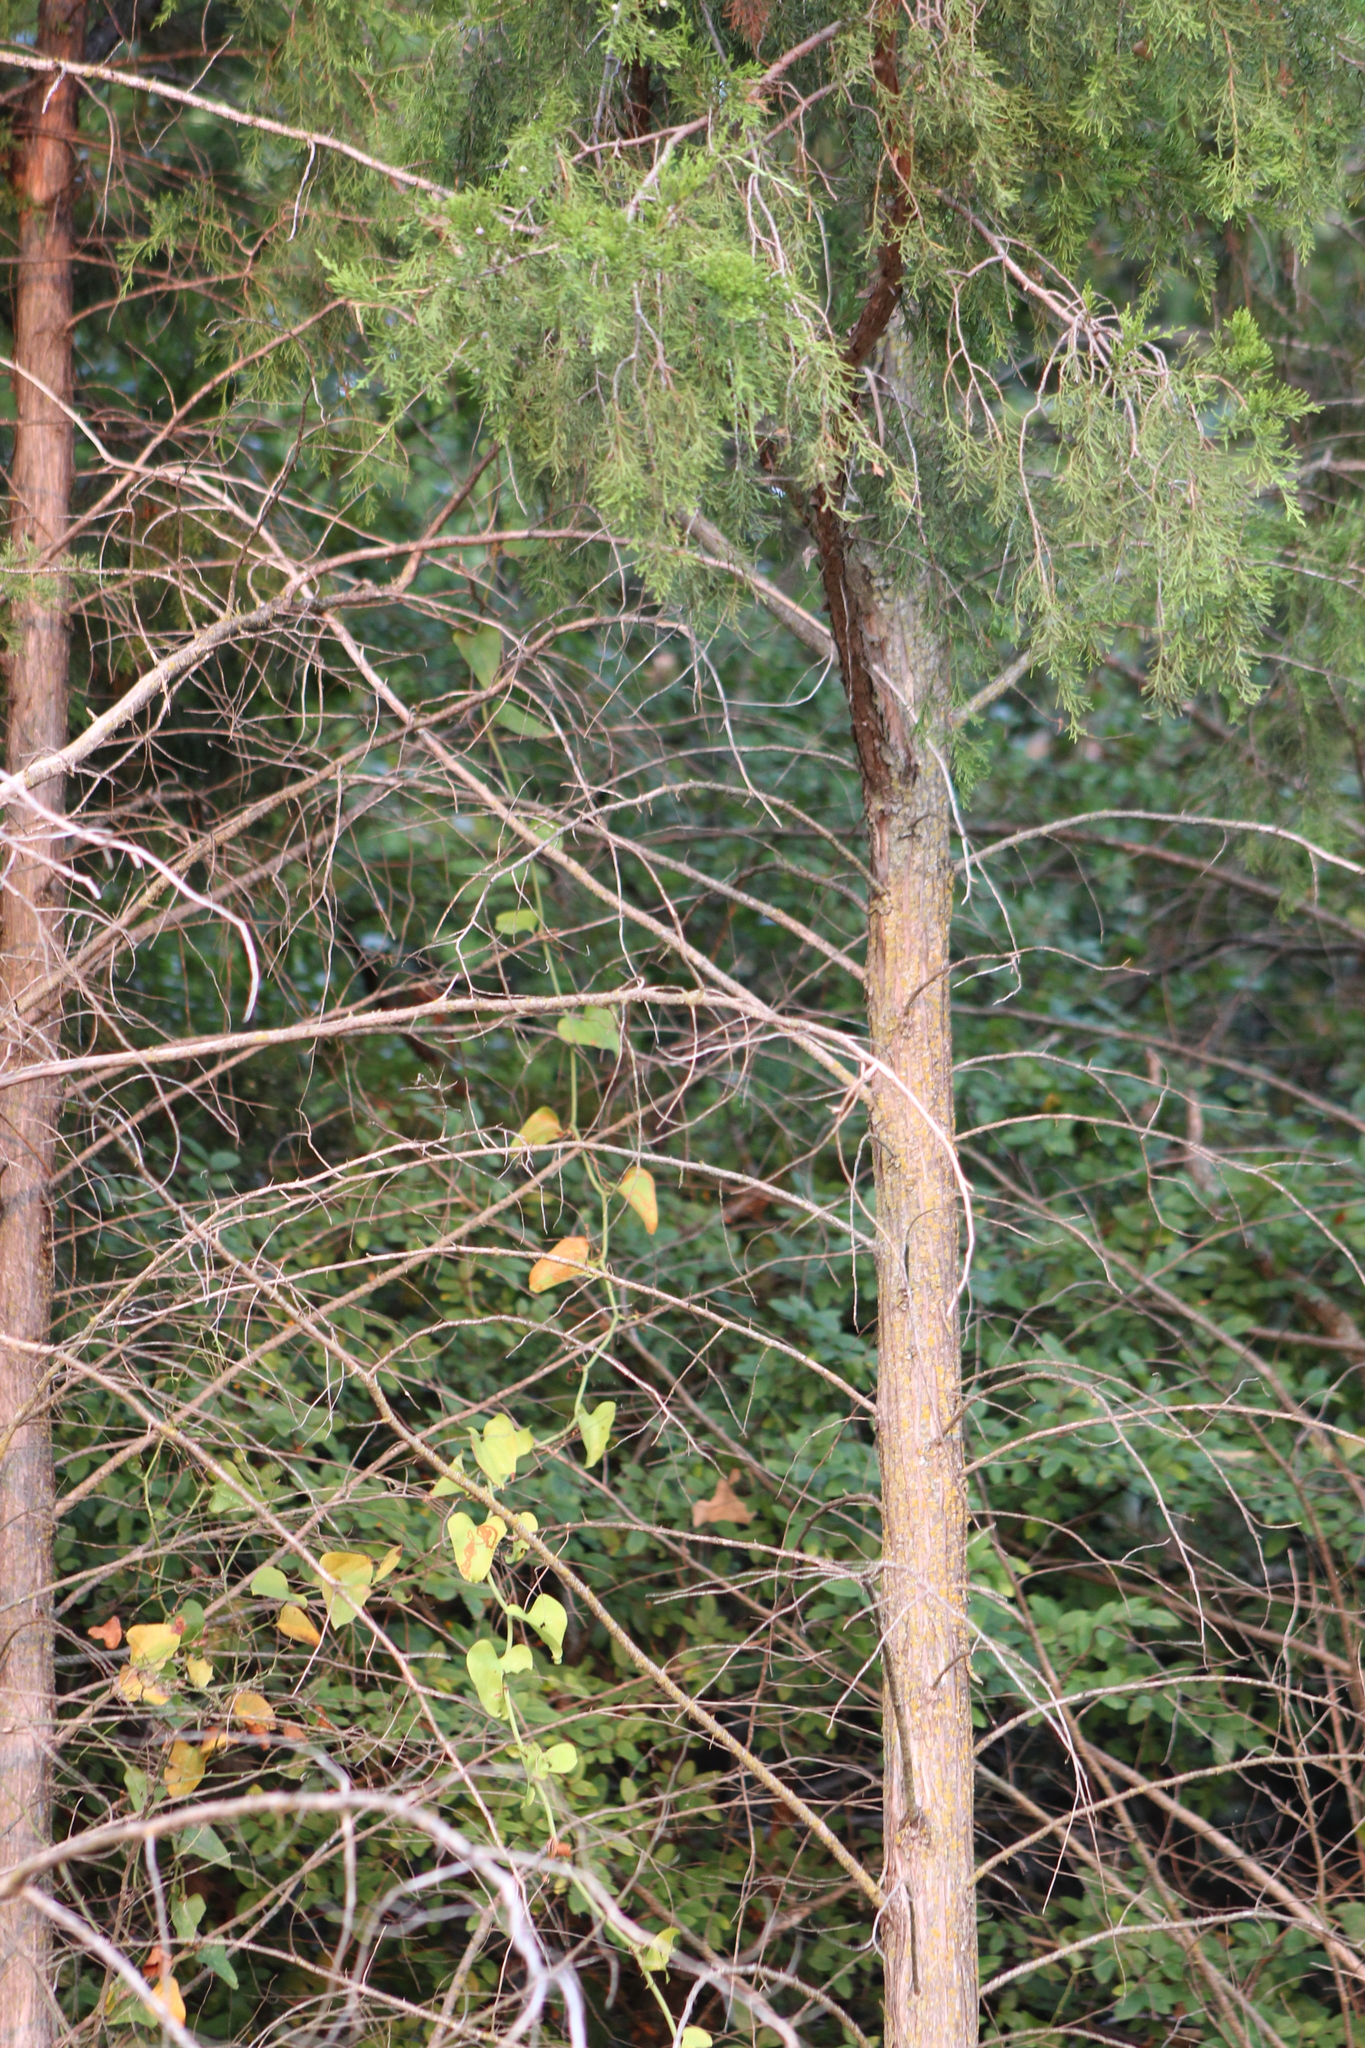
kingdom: Plantae
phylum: Tracheophyta
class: Pinopsida
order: Pinales
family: Cupressaceae
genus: Juniperus
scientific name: Juniperus virginiana
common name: Red juniper
